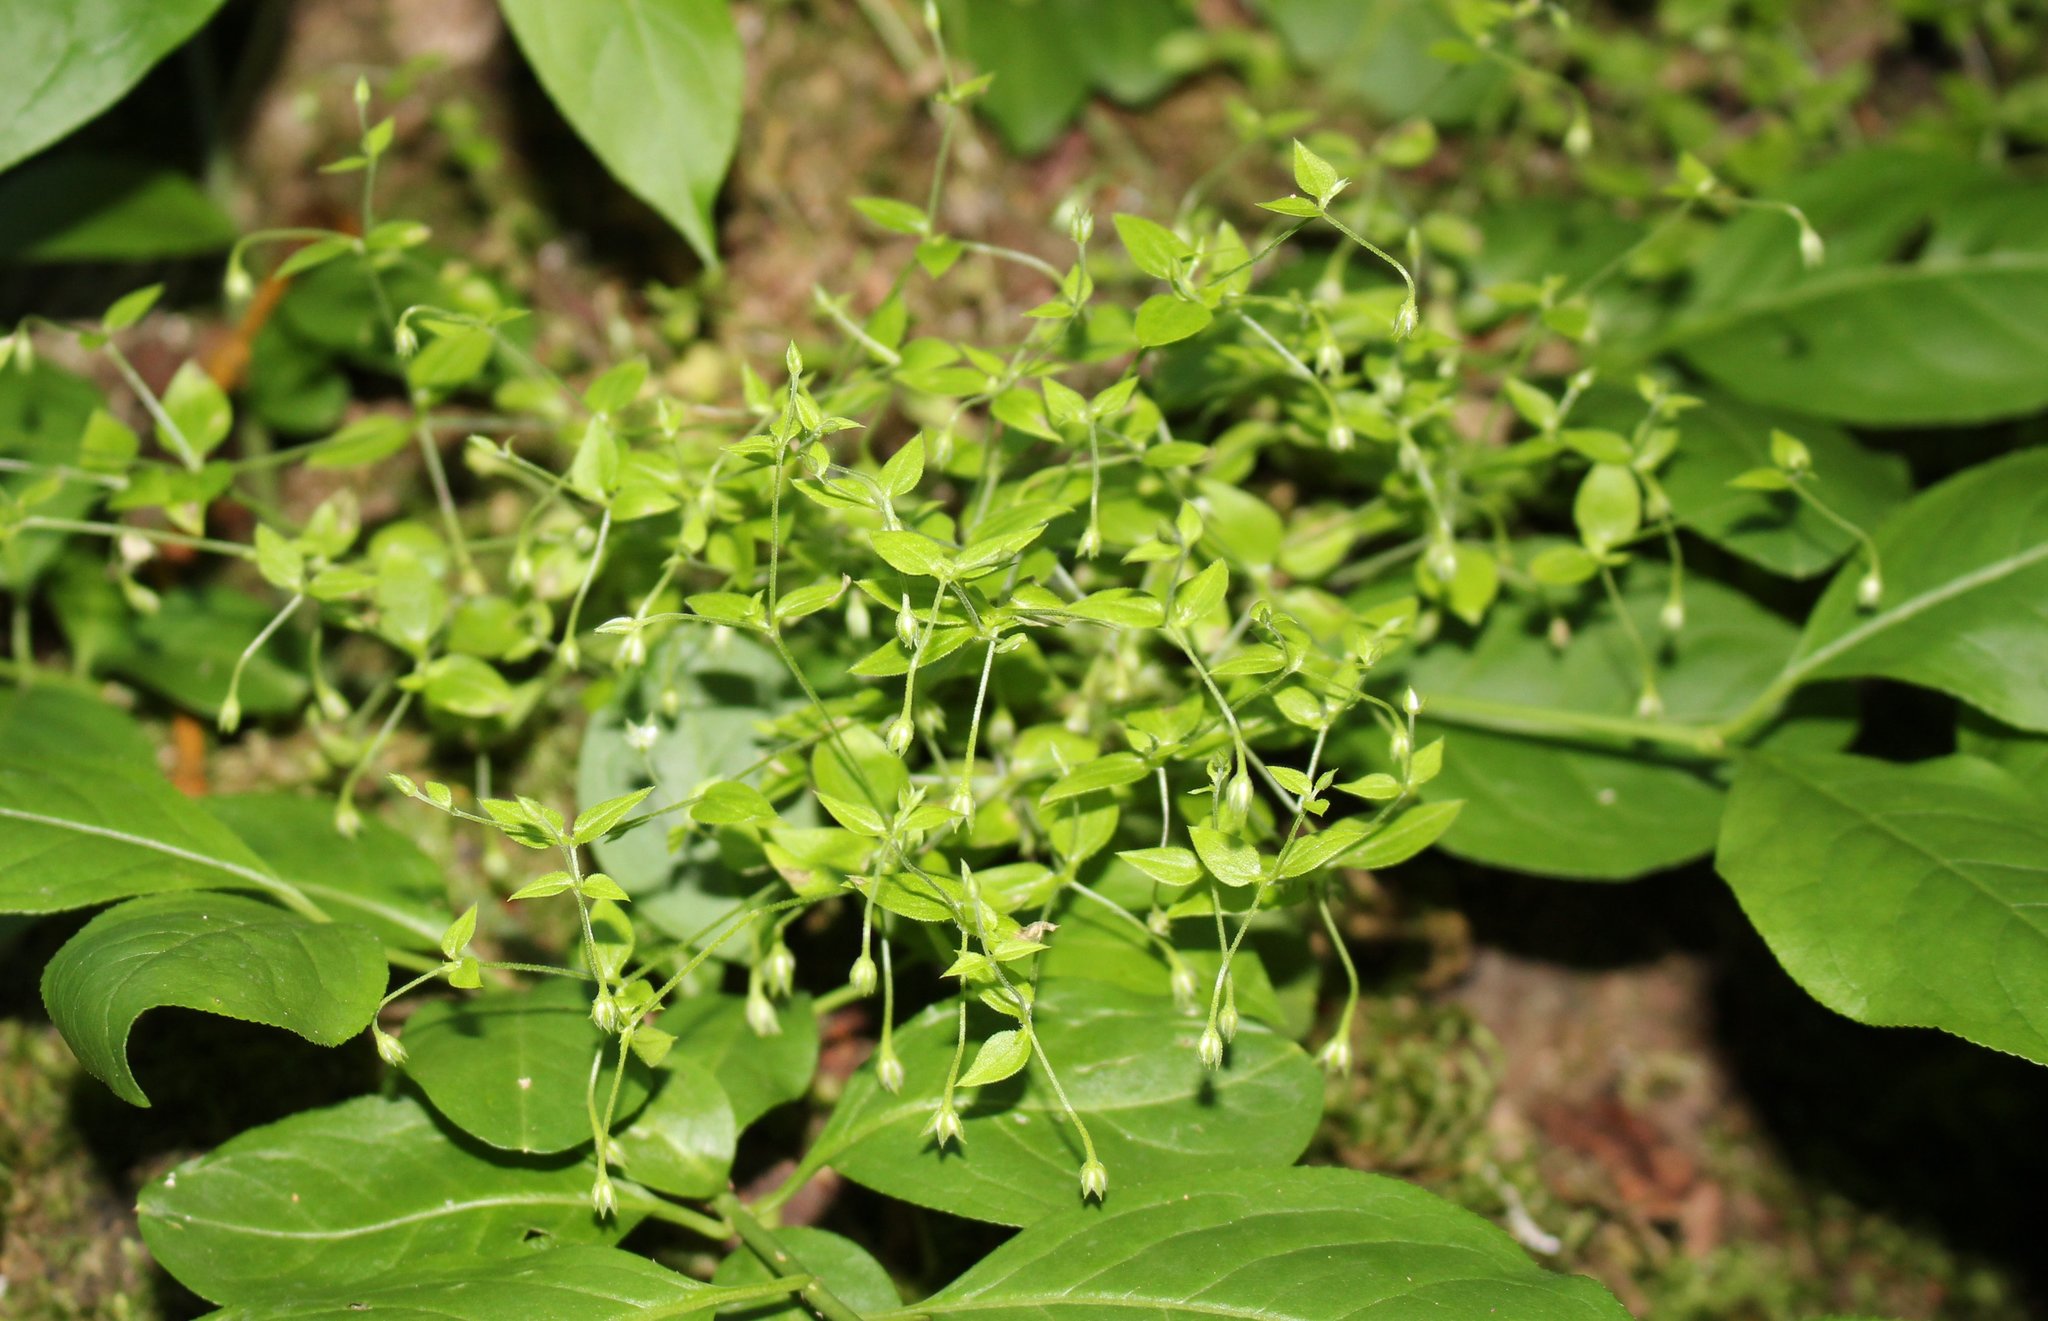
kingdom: Plantae
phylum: Tracheophyta
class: Magnoliopsida
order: Caryophyllales
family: Caryophyllaceae
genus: Moehringia
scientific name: Moehringia trinervia
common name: Three-nerved sandwort
